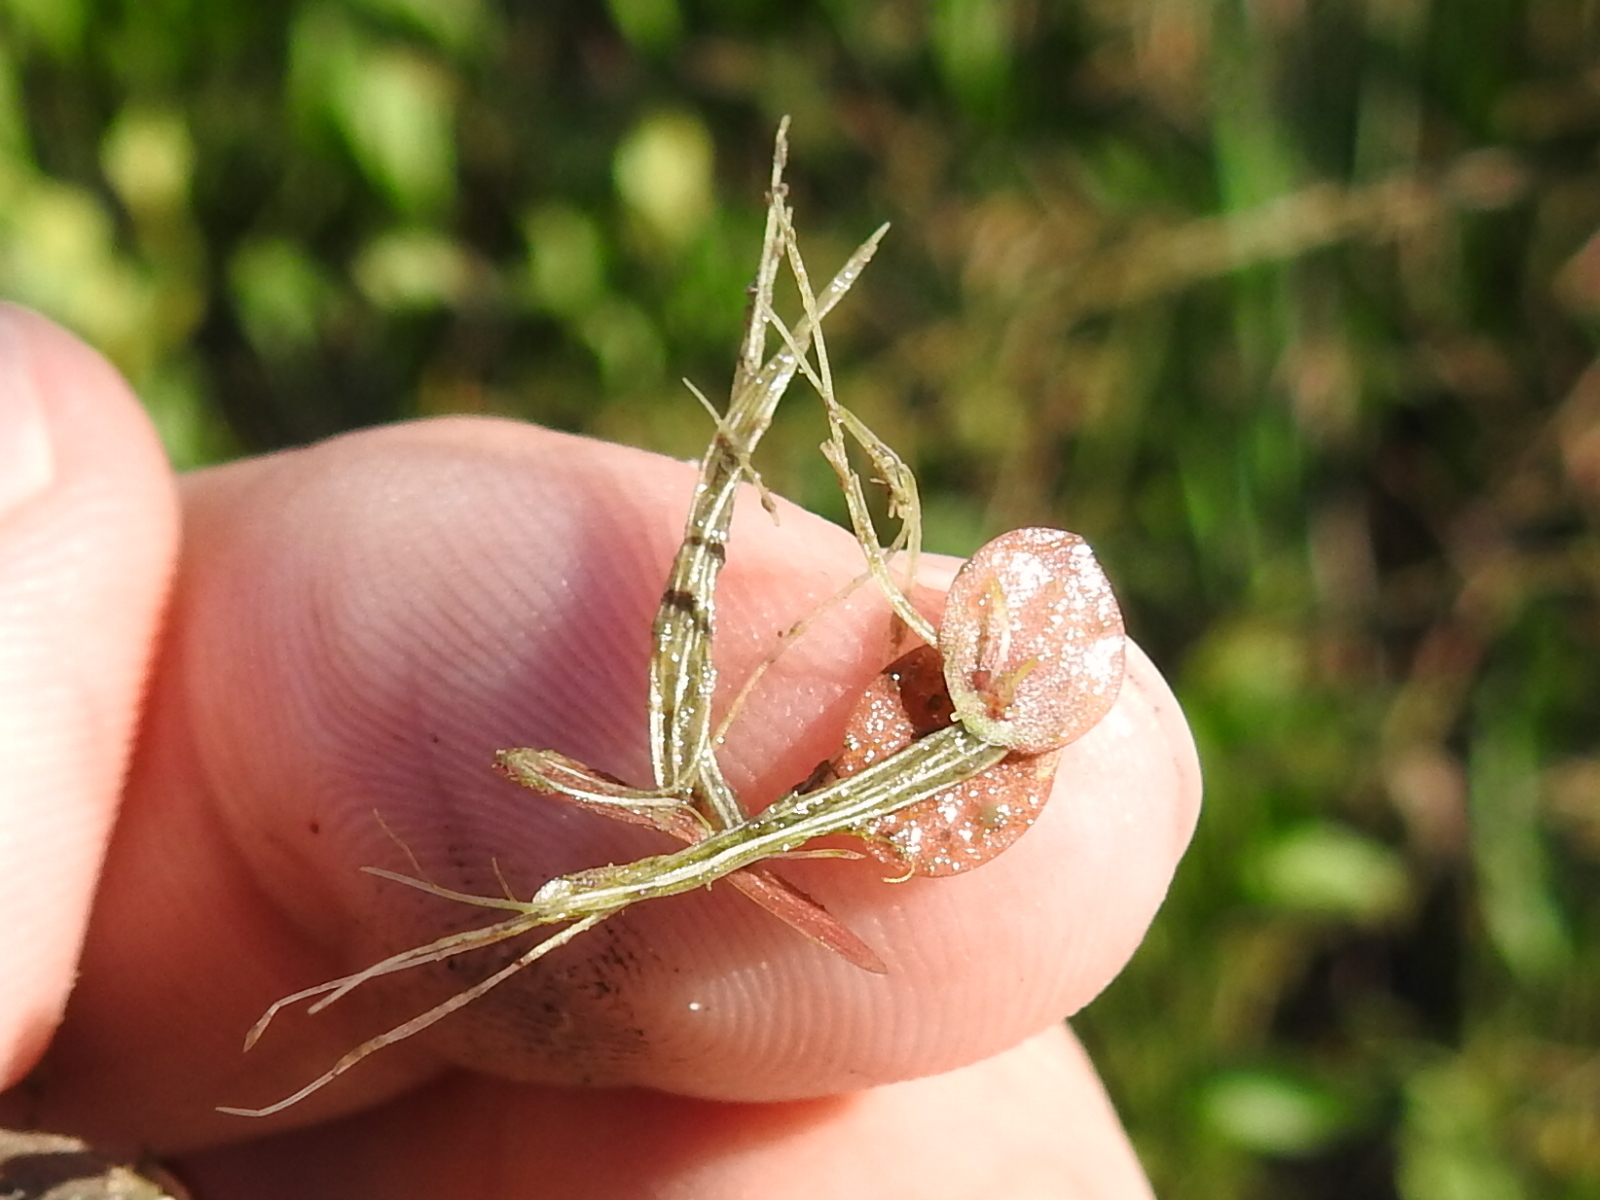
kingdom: Plantae
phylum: Tracheophyta
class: Liliopsida
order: Alismatales
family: Araceae
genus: Spirodela
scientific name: Spirodela polyrhiza
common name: Great duckweed
